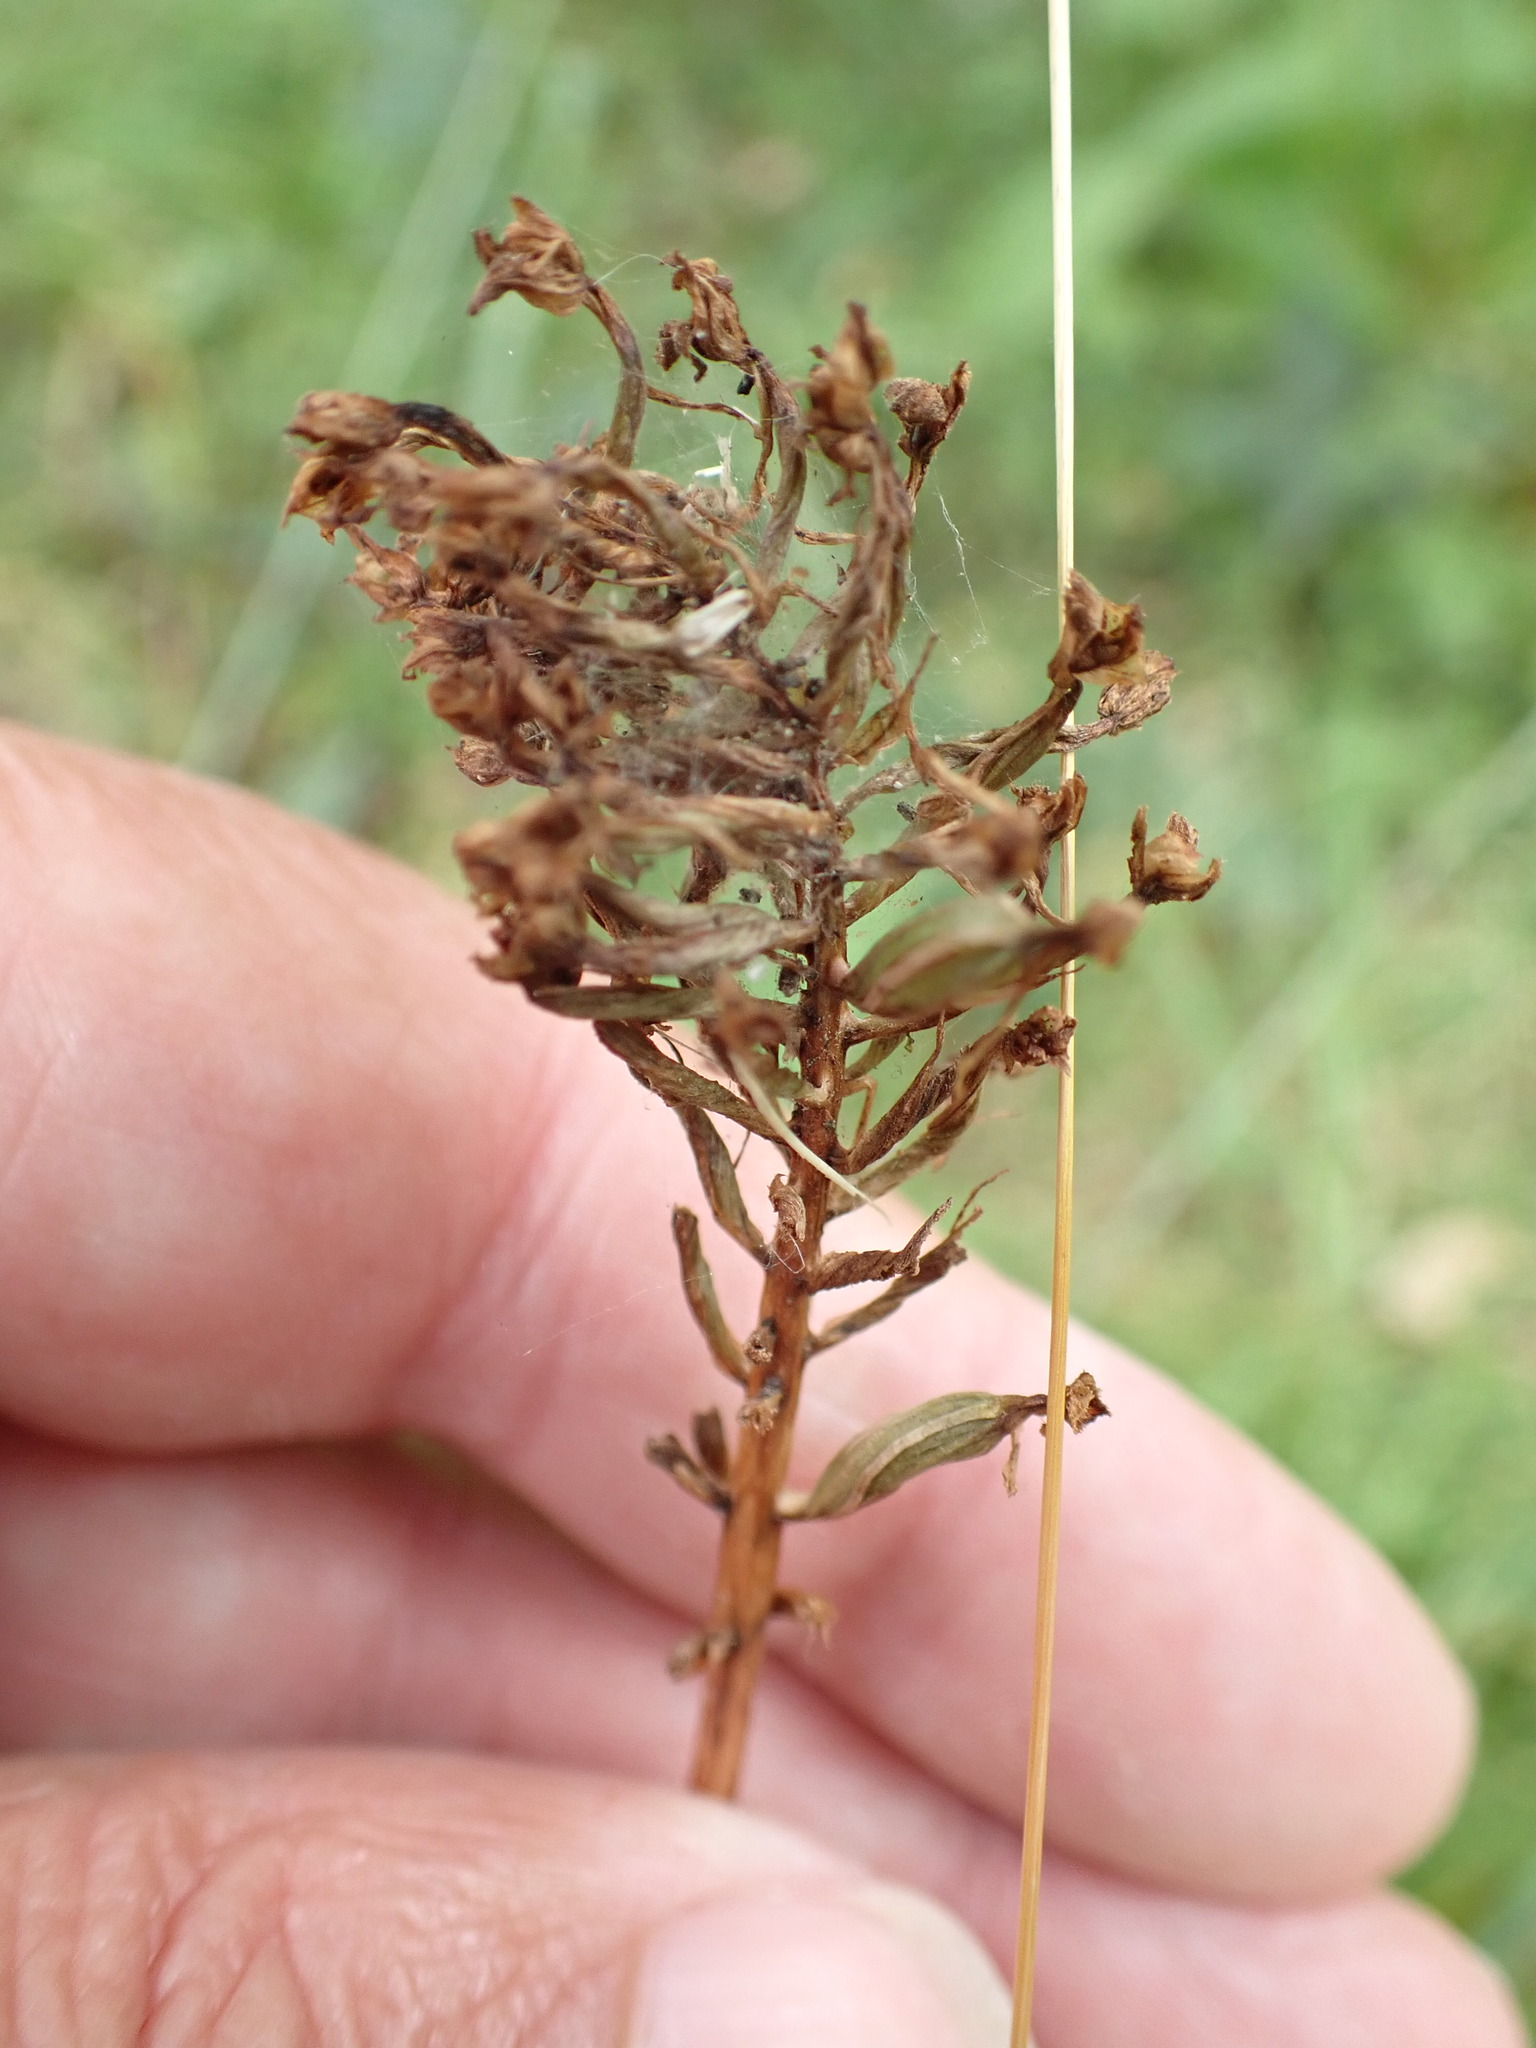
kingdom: Plantae
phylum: Tracheophyta
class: Liliopsida
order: Asparagales
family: Orchidaceae
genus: Anacamptis
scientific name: Anacamptis pyramidalis
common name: Pyramidal orchid
